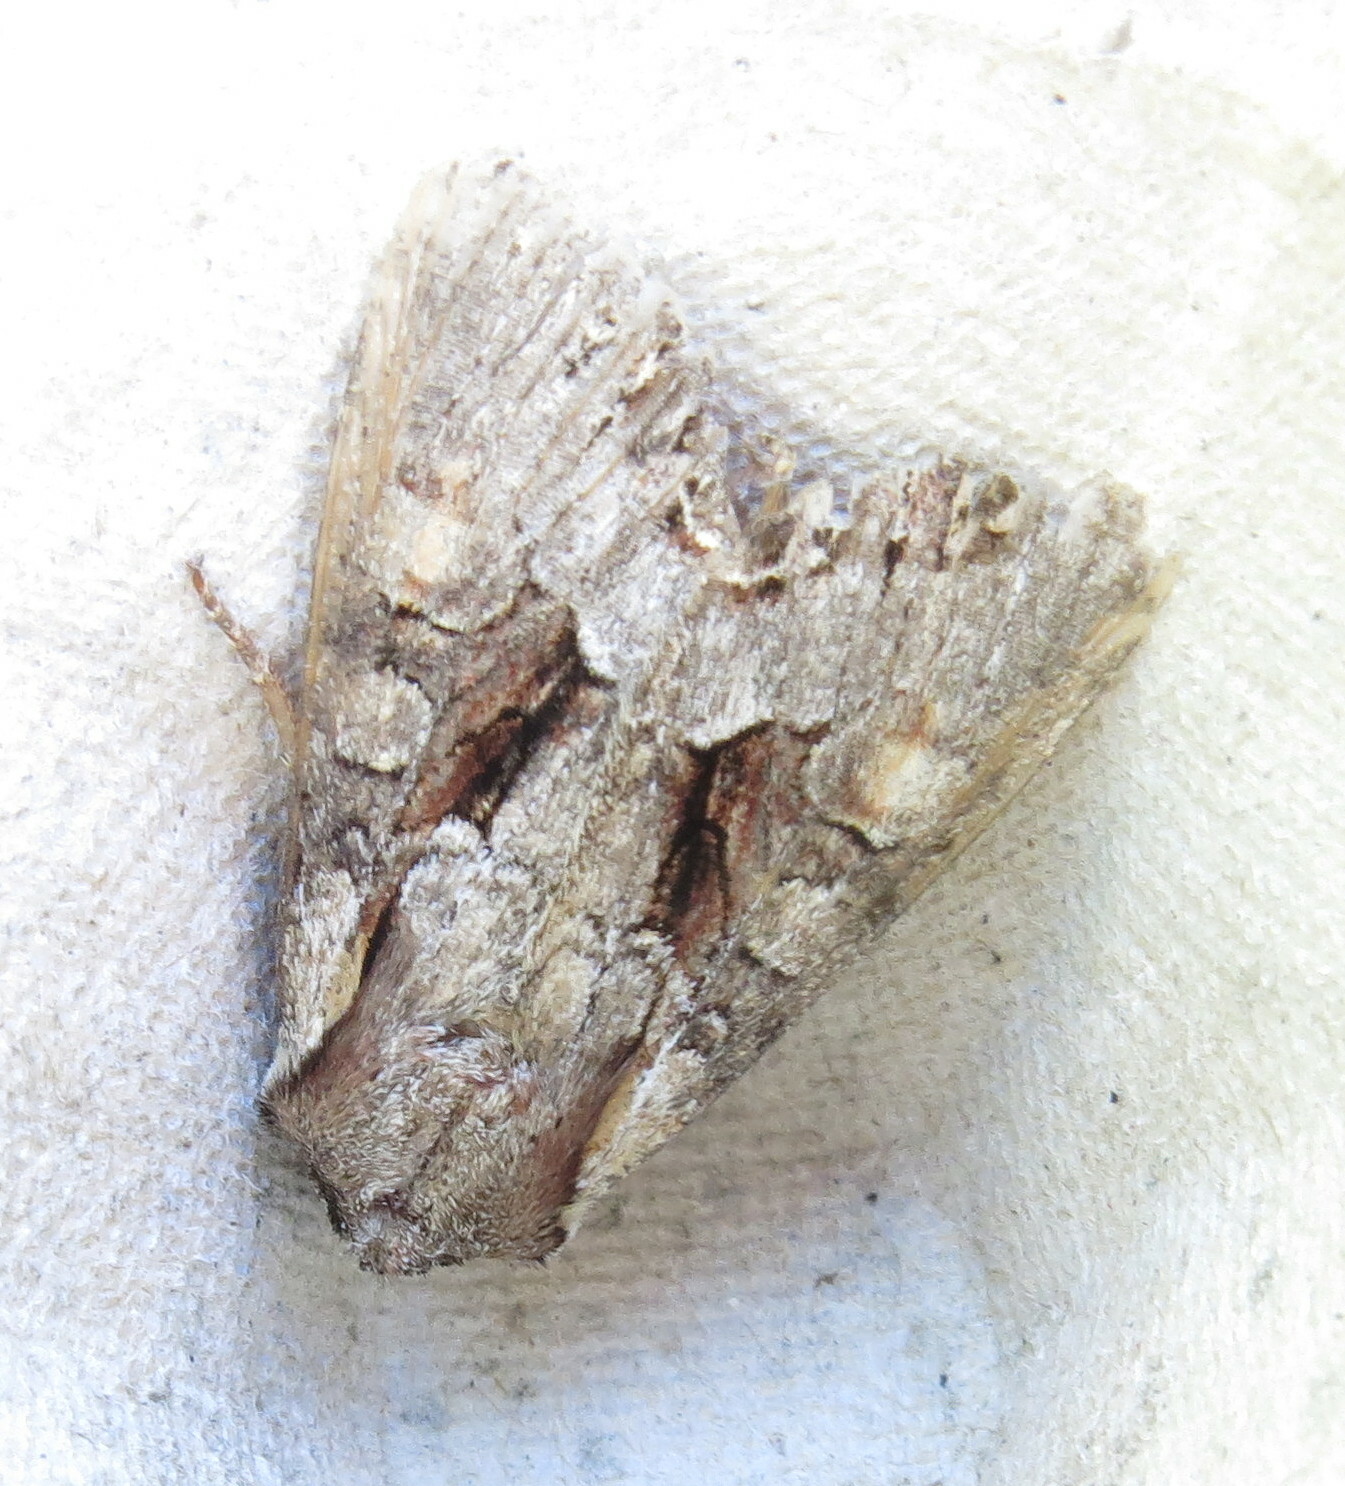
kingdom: Animalia
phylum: Arthropoda
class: Insecta
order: Lepidoptera
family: Noctuidae
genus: Lacanobia
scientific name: Lacanobia w-latinum
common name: Light brocade
